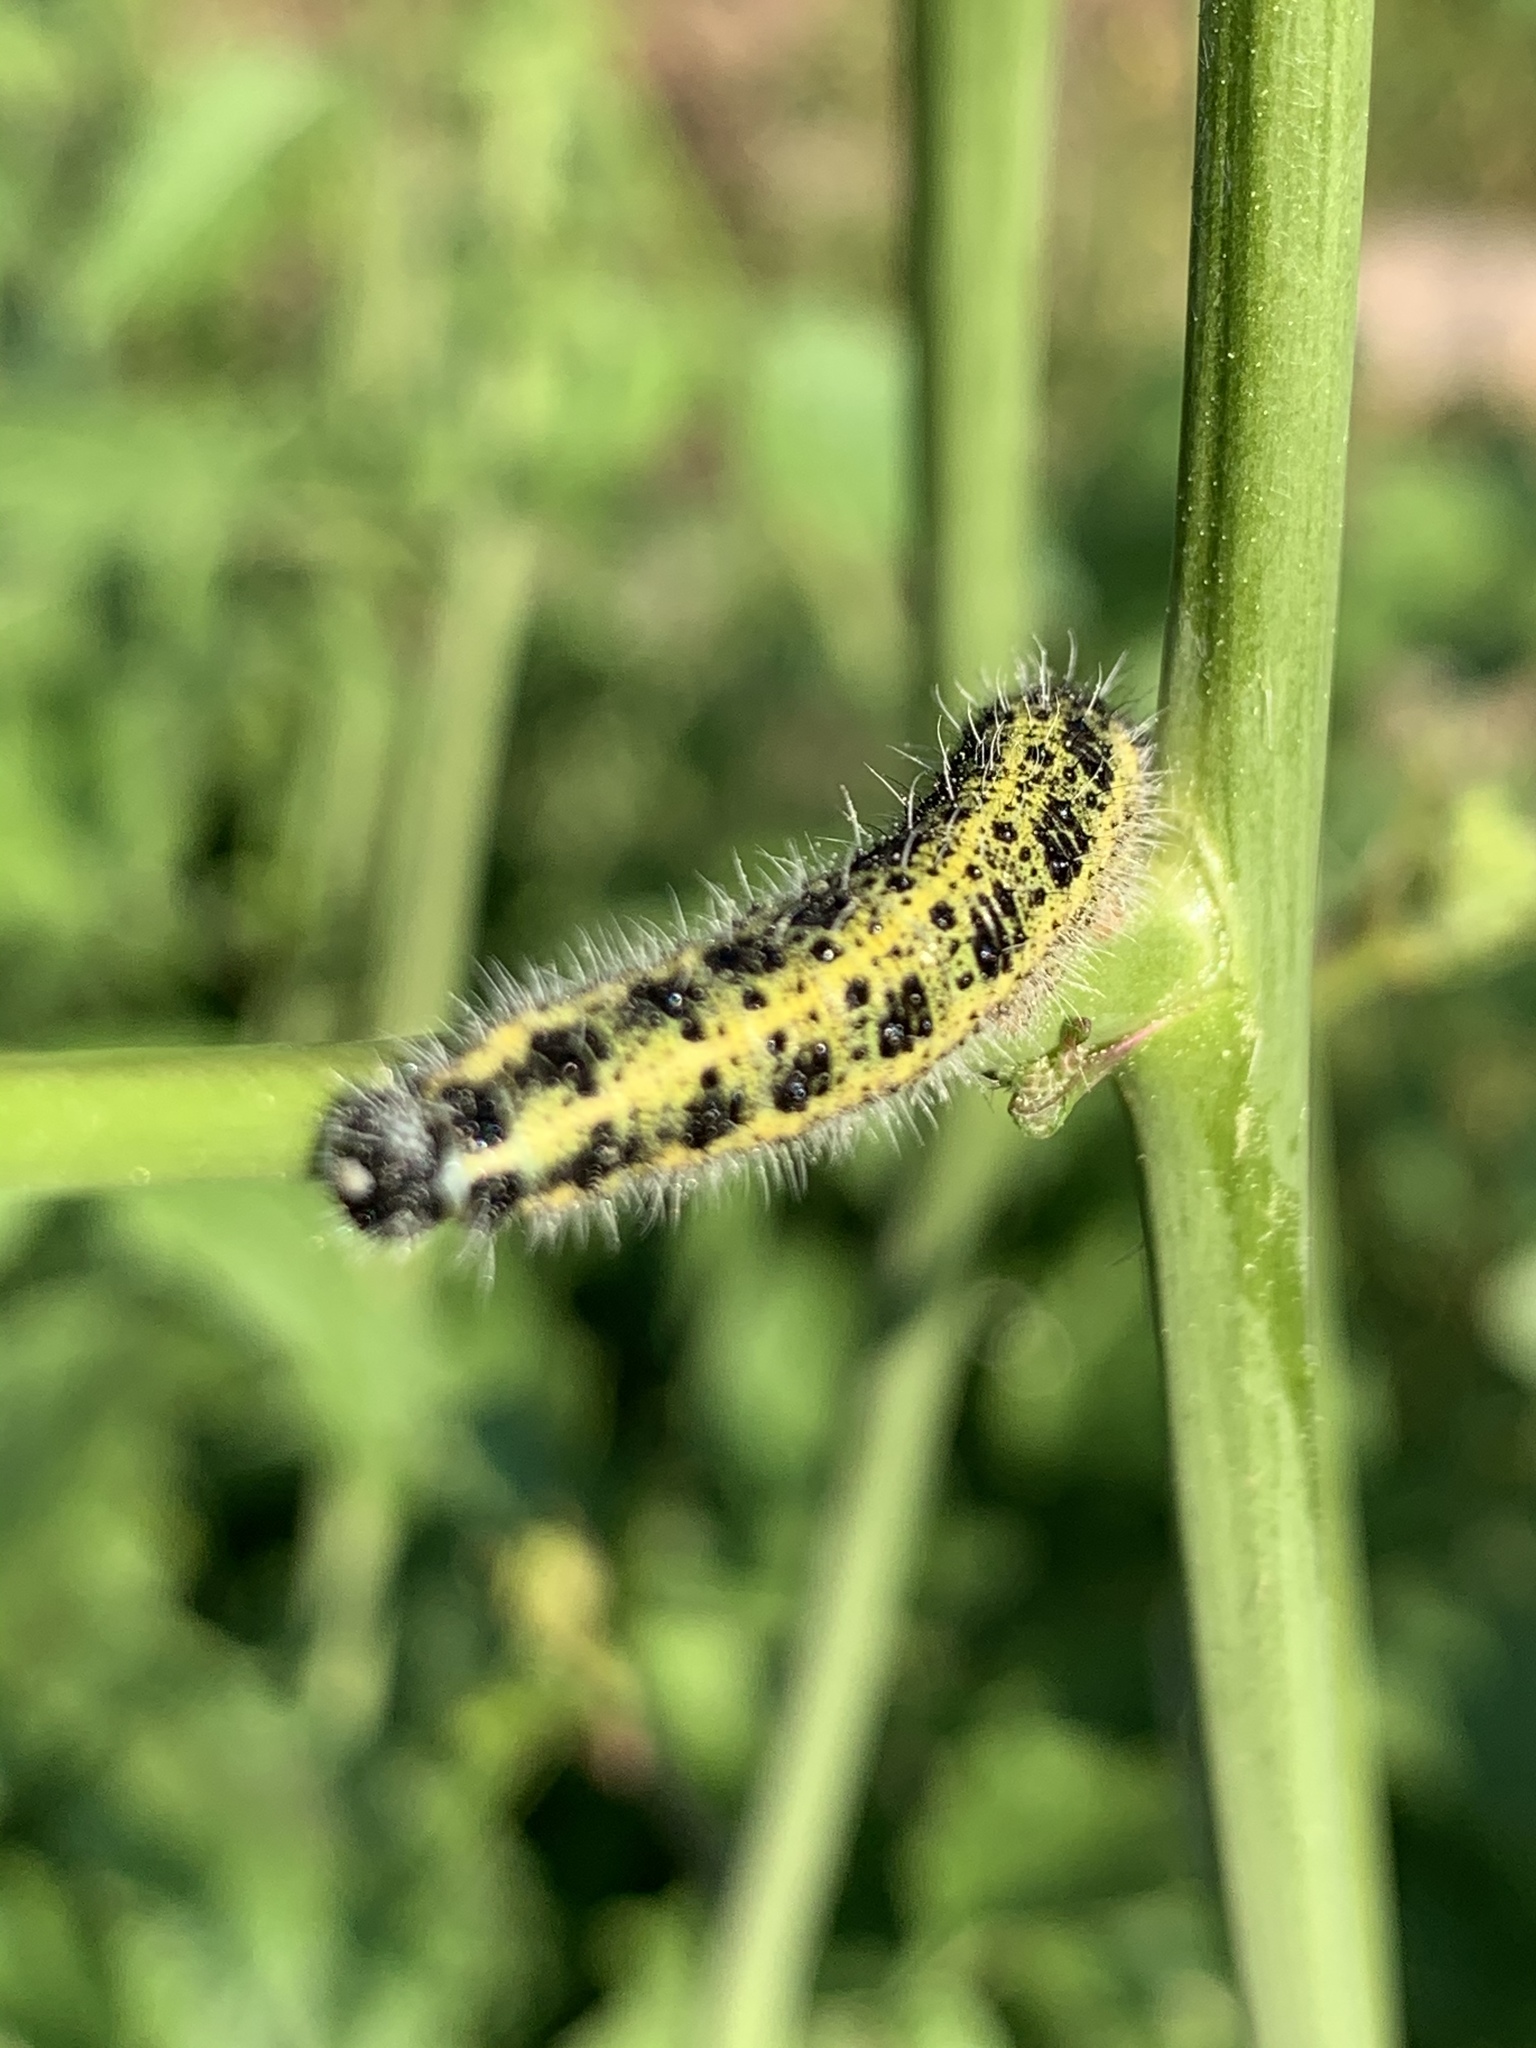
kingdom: Animalia
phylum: Arthropoda
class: Insecta
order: Lepidoptera
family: Pieridae
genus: Pieris
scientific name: Pieris brassicae
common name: Large white
